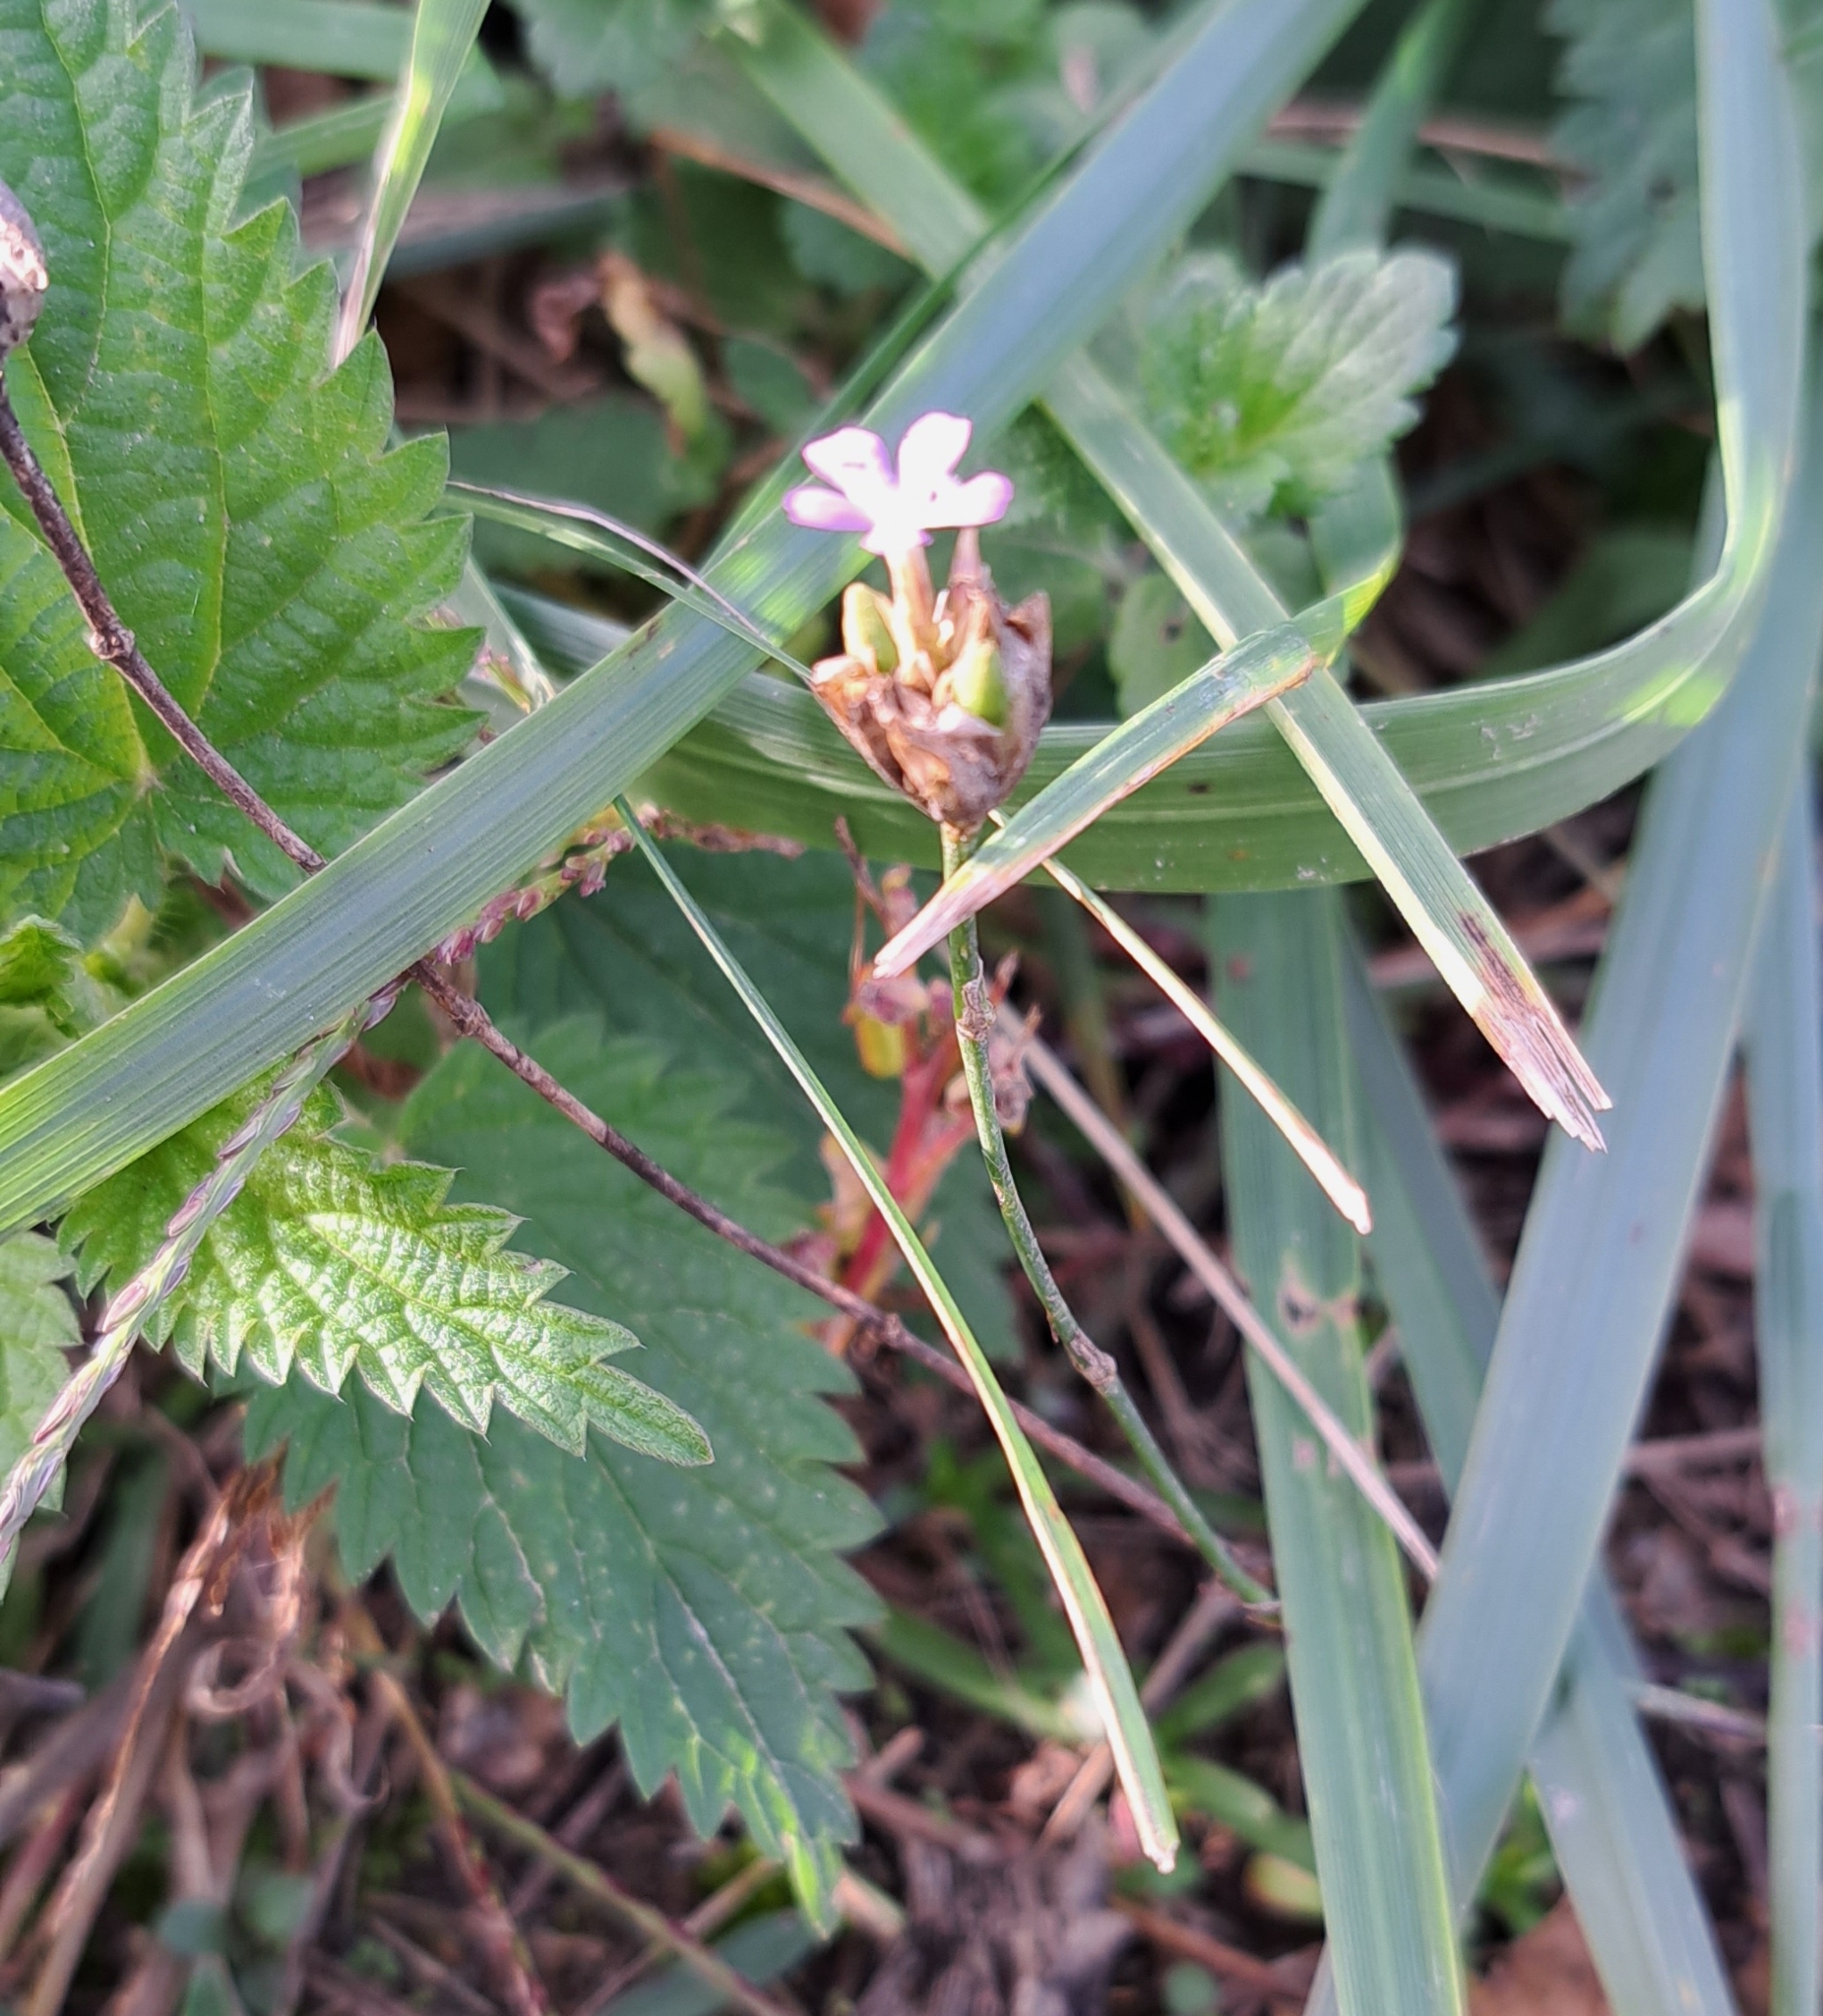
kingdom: Plantae
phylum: Tracheophyta
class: Magnoliopsida
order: Caryophyllales
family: Caryophyllaceae
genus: Petrorhagia
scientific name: Petrorhagia prolifera
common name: Proliferous pink
